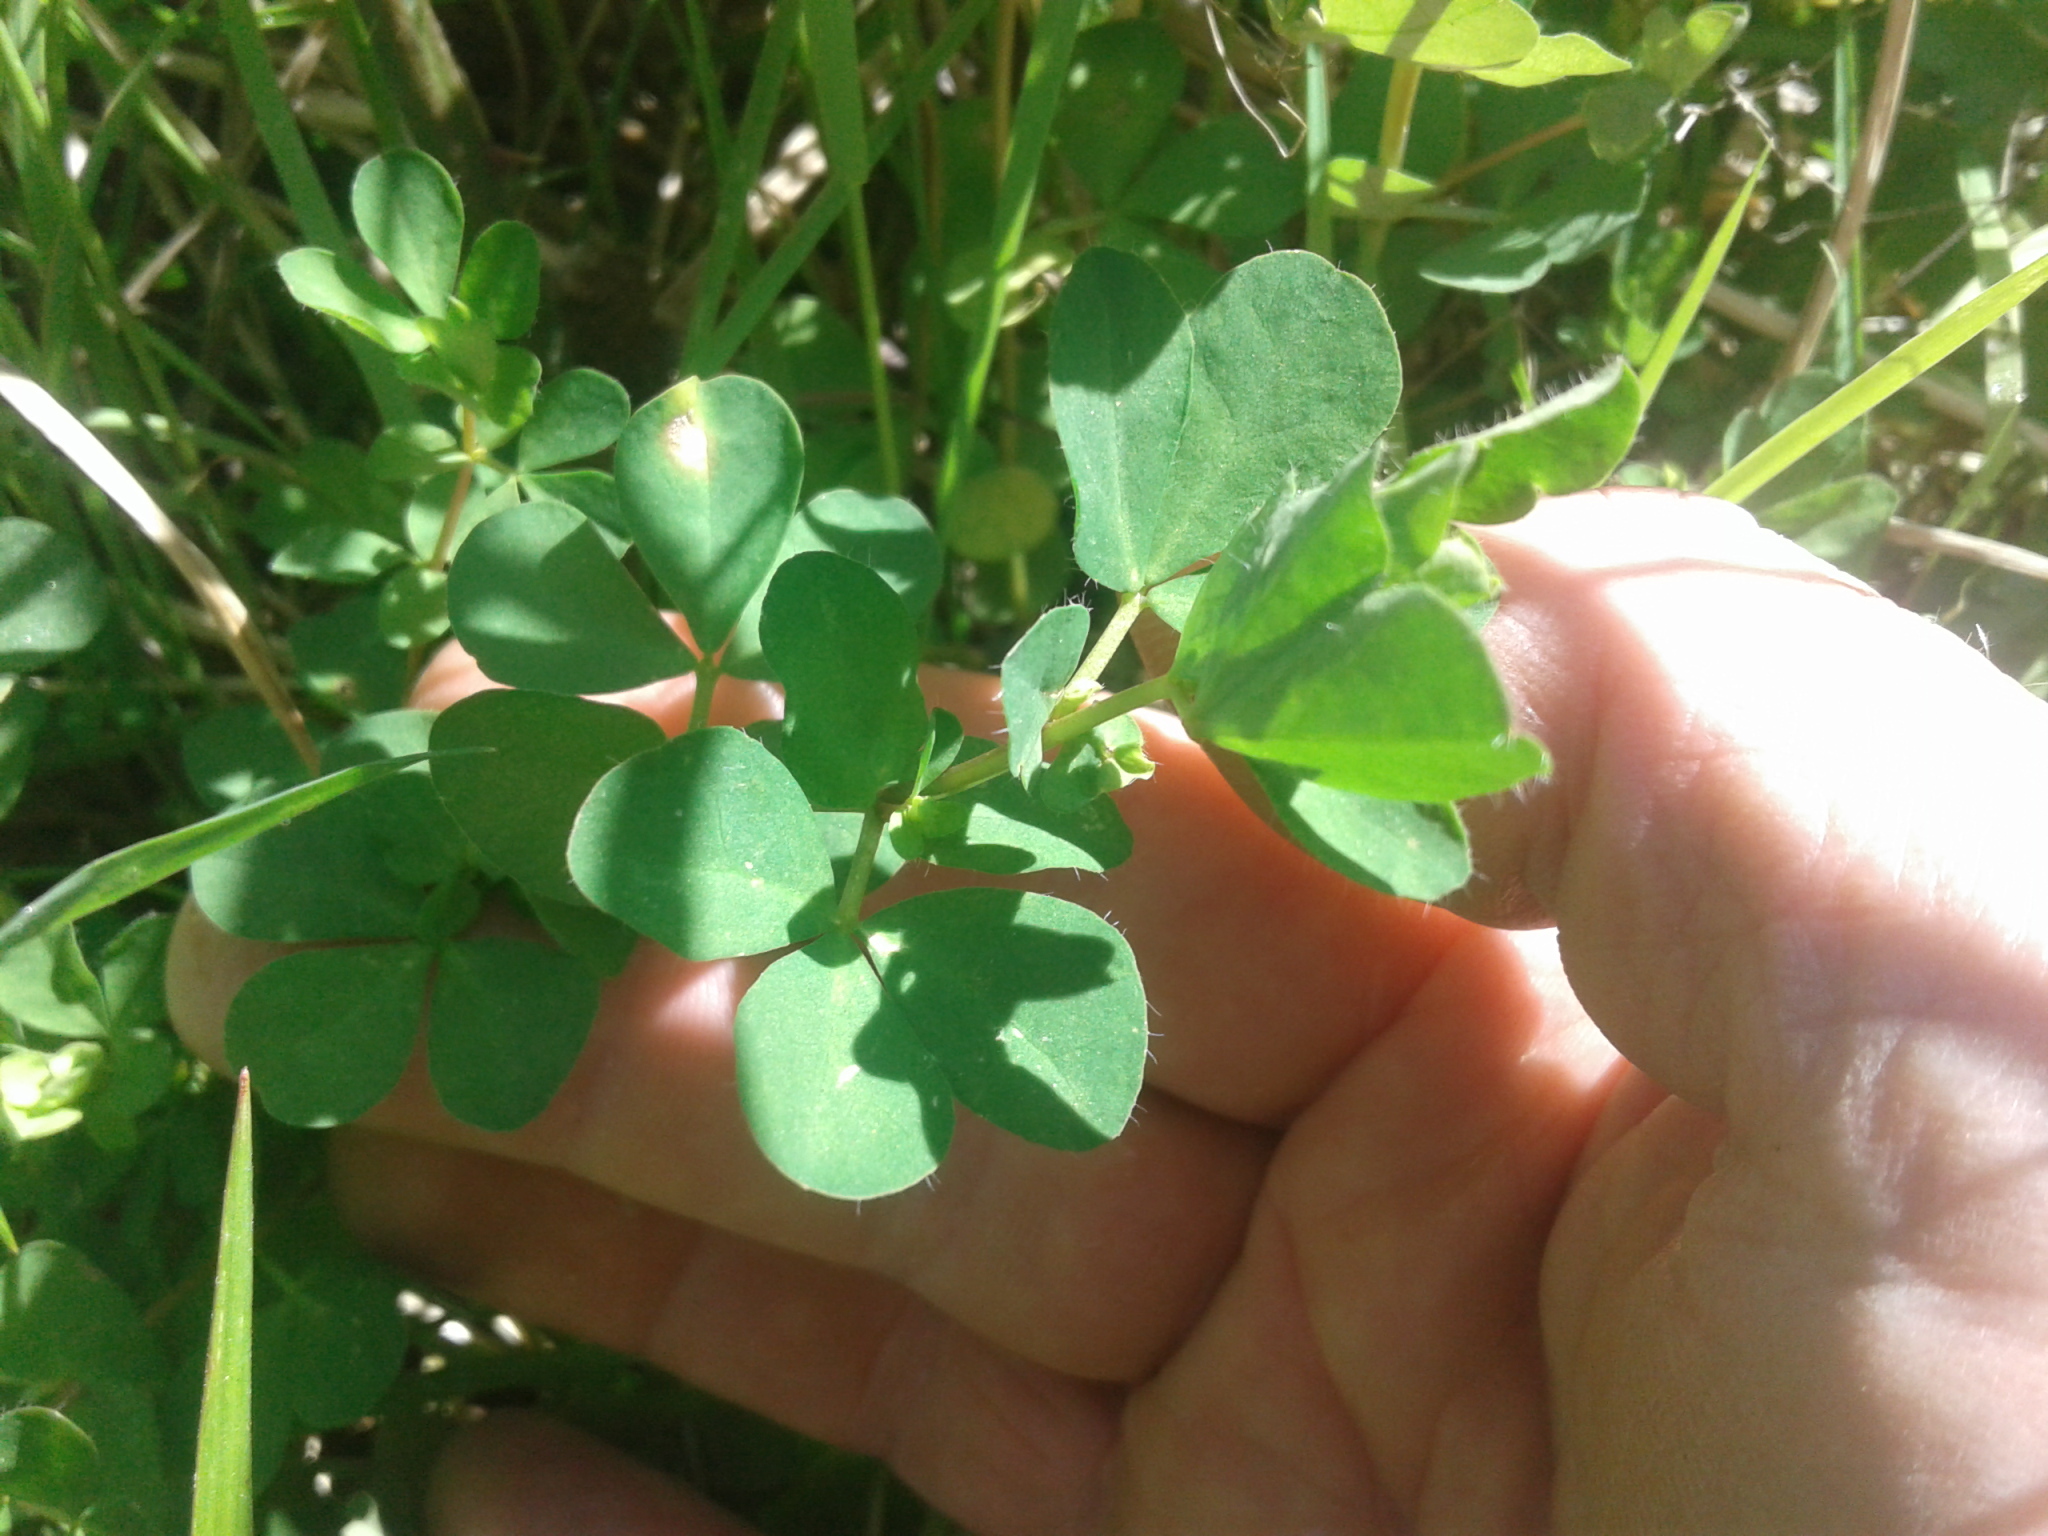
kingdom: Plantae
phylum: Tracheophyta
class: Magnoliopsida
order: Fabales
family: Fabaceae
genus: Lotus
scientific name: Lotus pedunculatus
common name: Greater birdsfoot-trefoil
